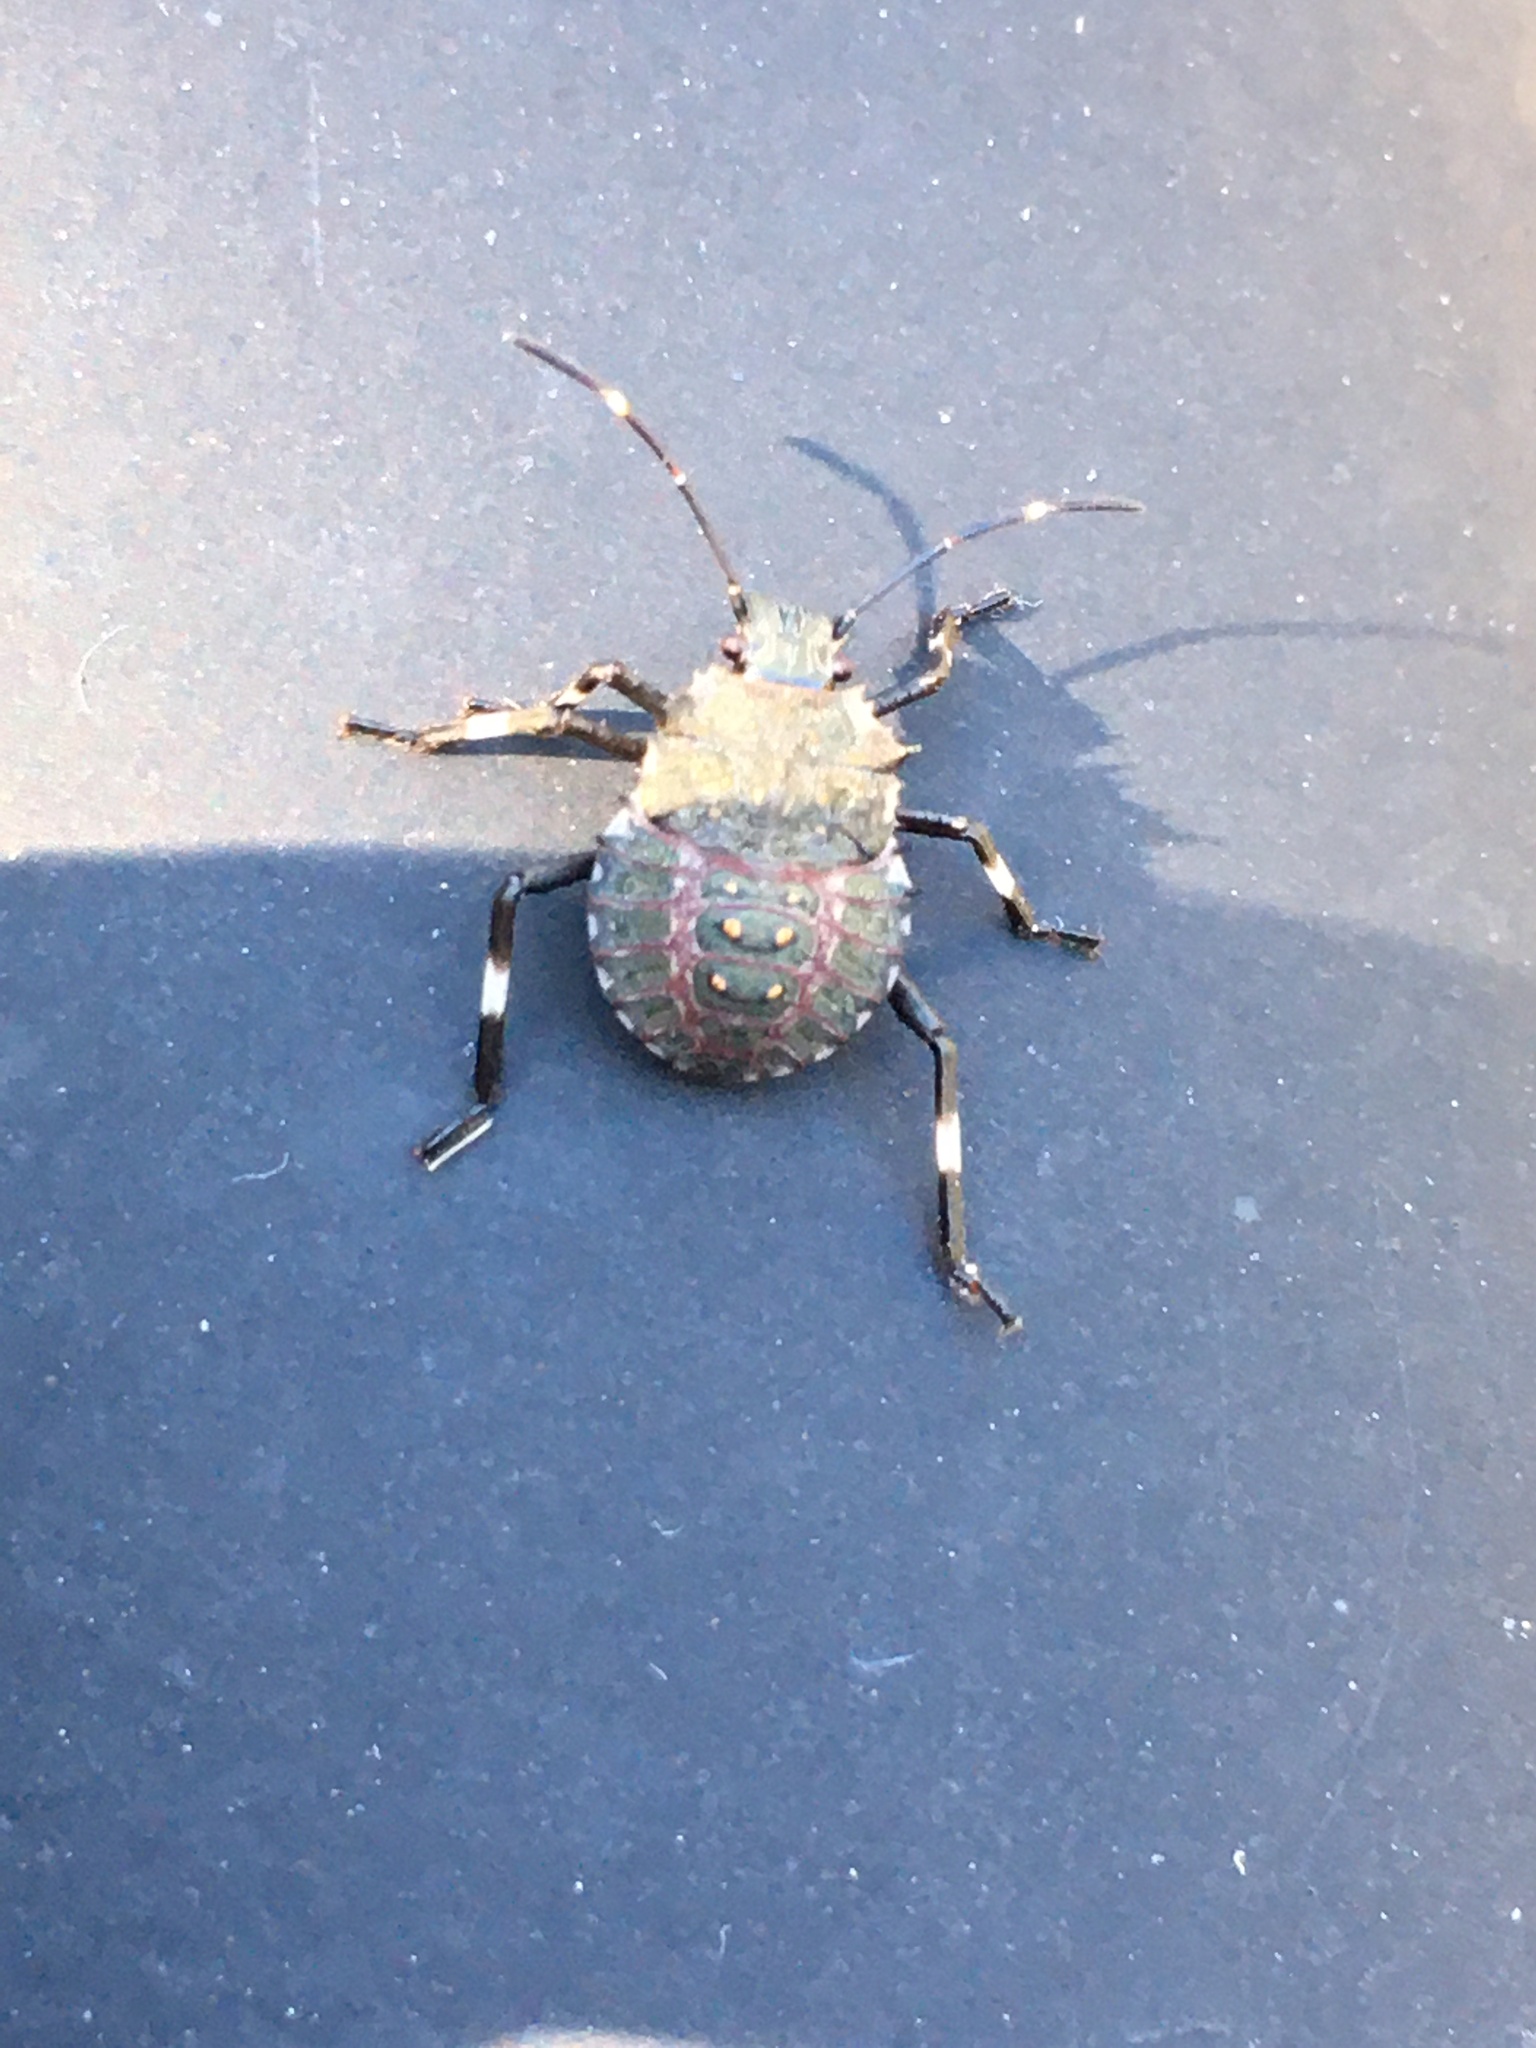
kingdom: Animalia
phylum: Arthropoda
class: Insecta
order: Hemiptera
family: Pentatomidae
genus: Halyomorpha
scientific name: Halyomorpha halys
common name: Brown marmorated stink bug
